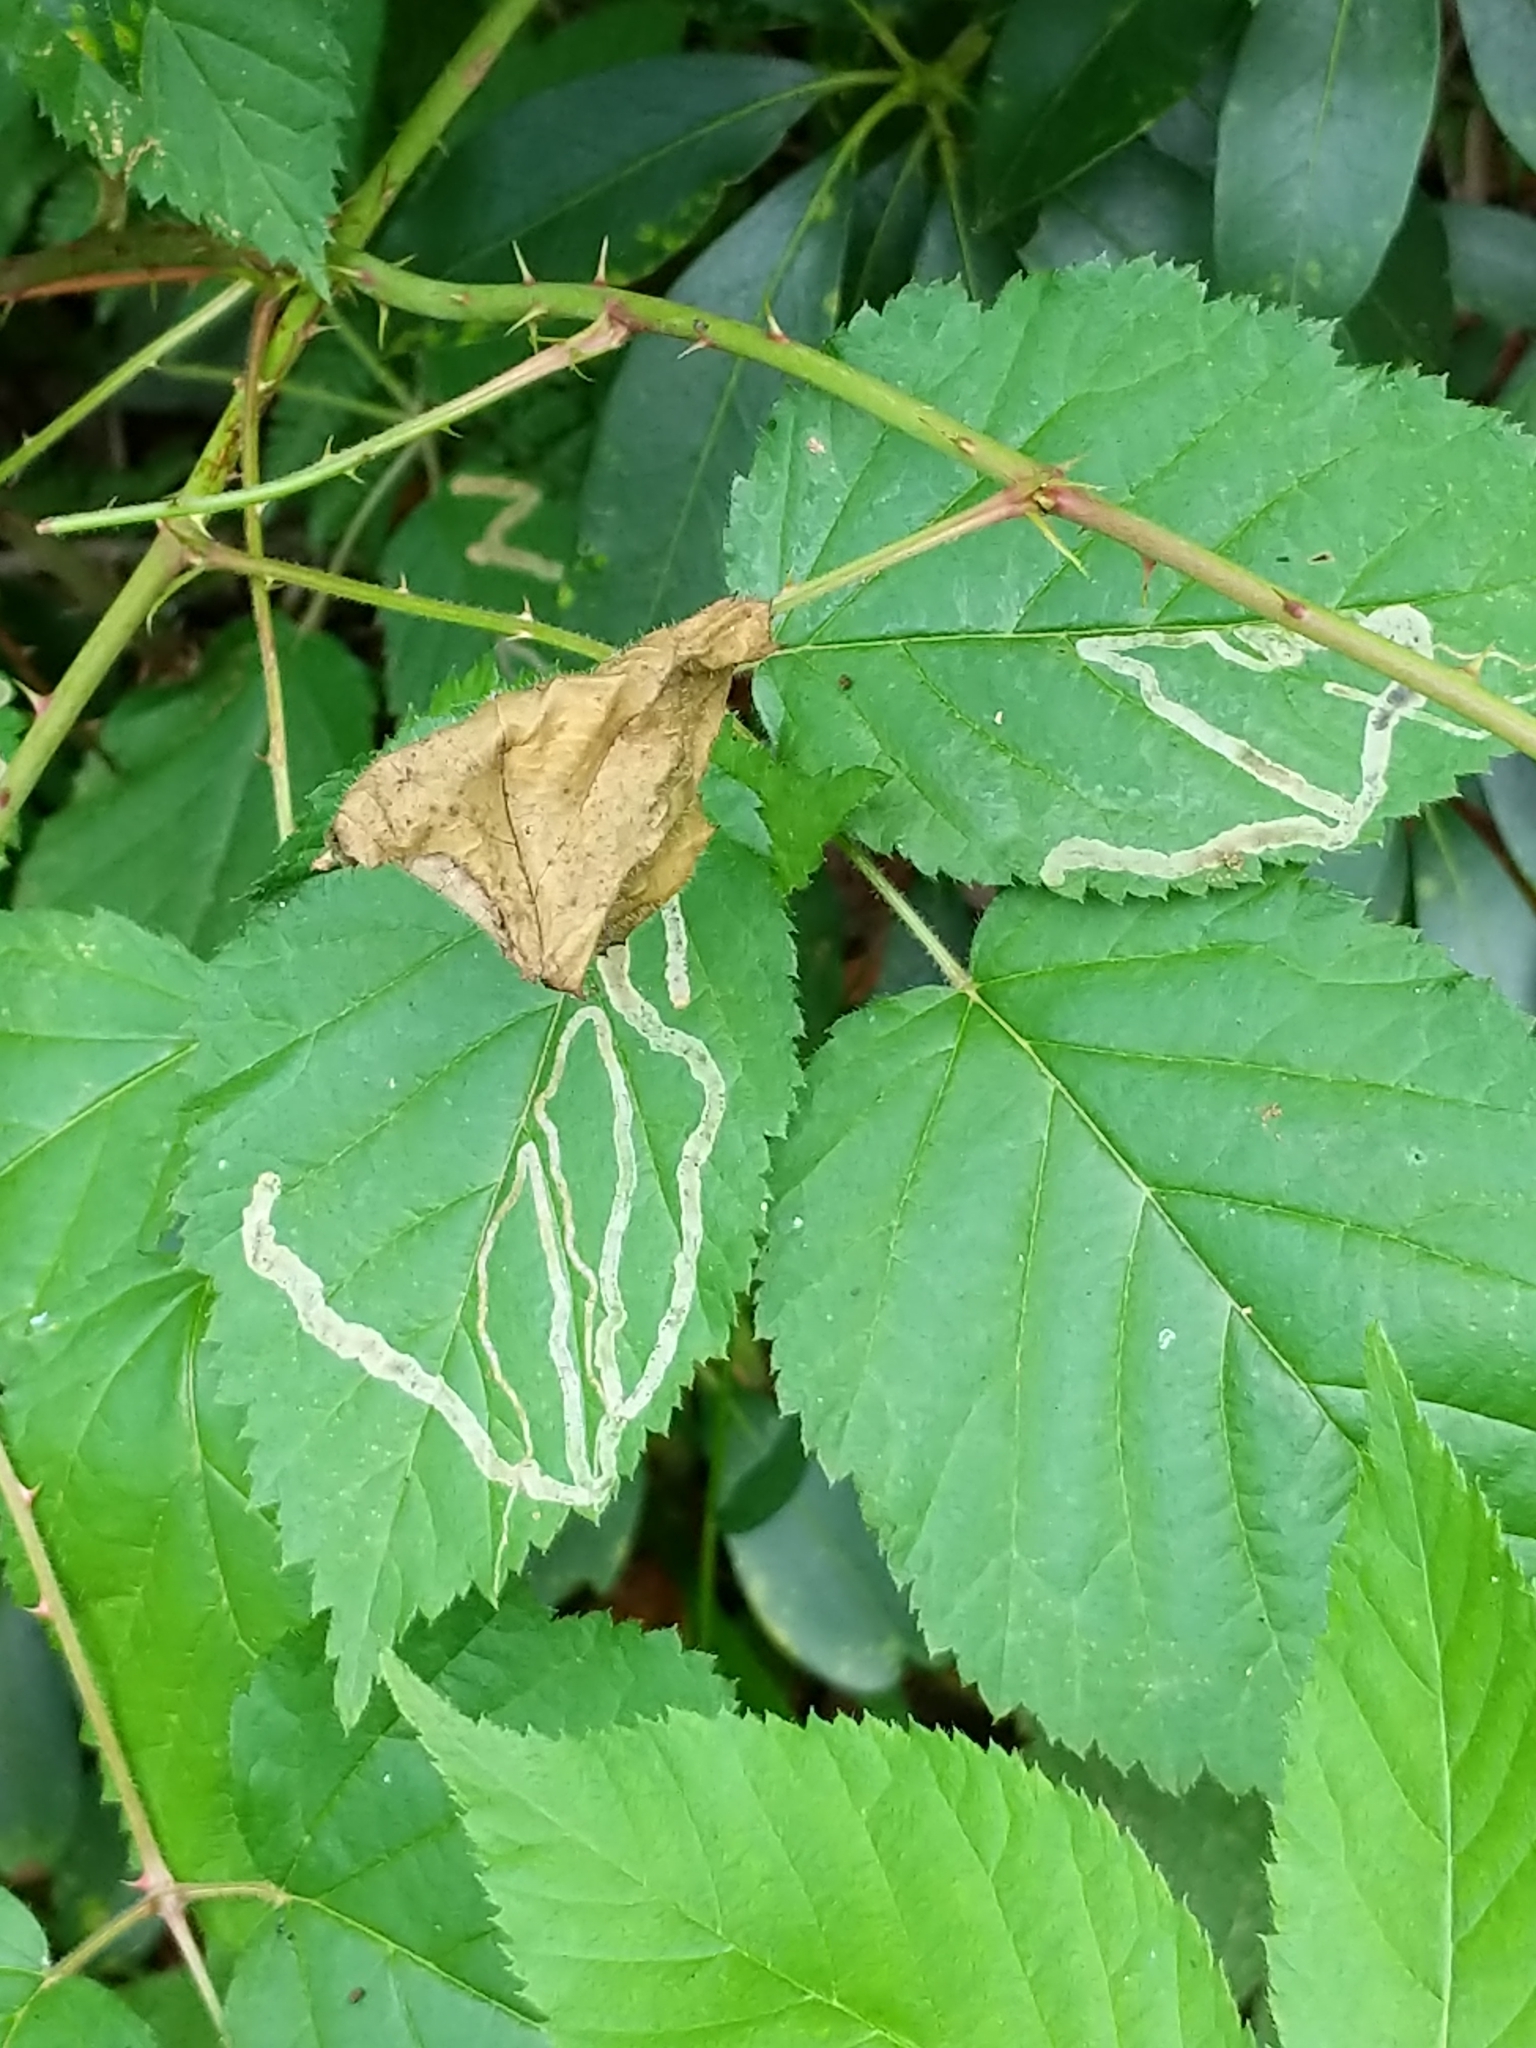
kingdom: Animalia
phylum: Arthropoda
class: Insecta
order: Diptera
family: Agromyzidae
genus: Agromyza
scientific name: Agromyza vockerothi
